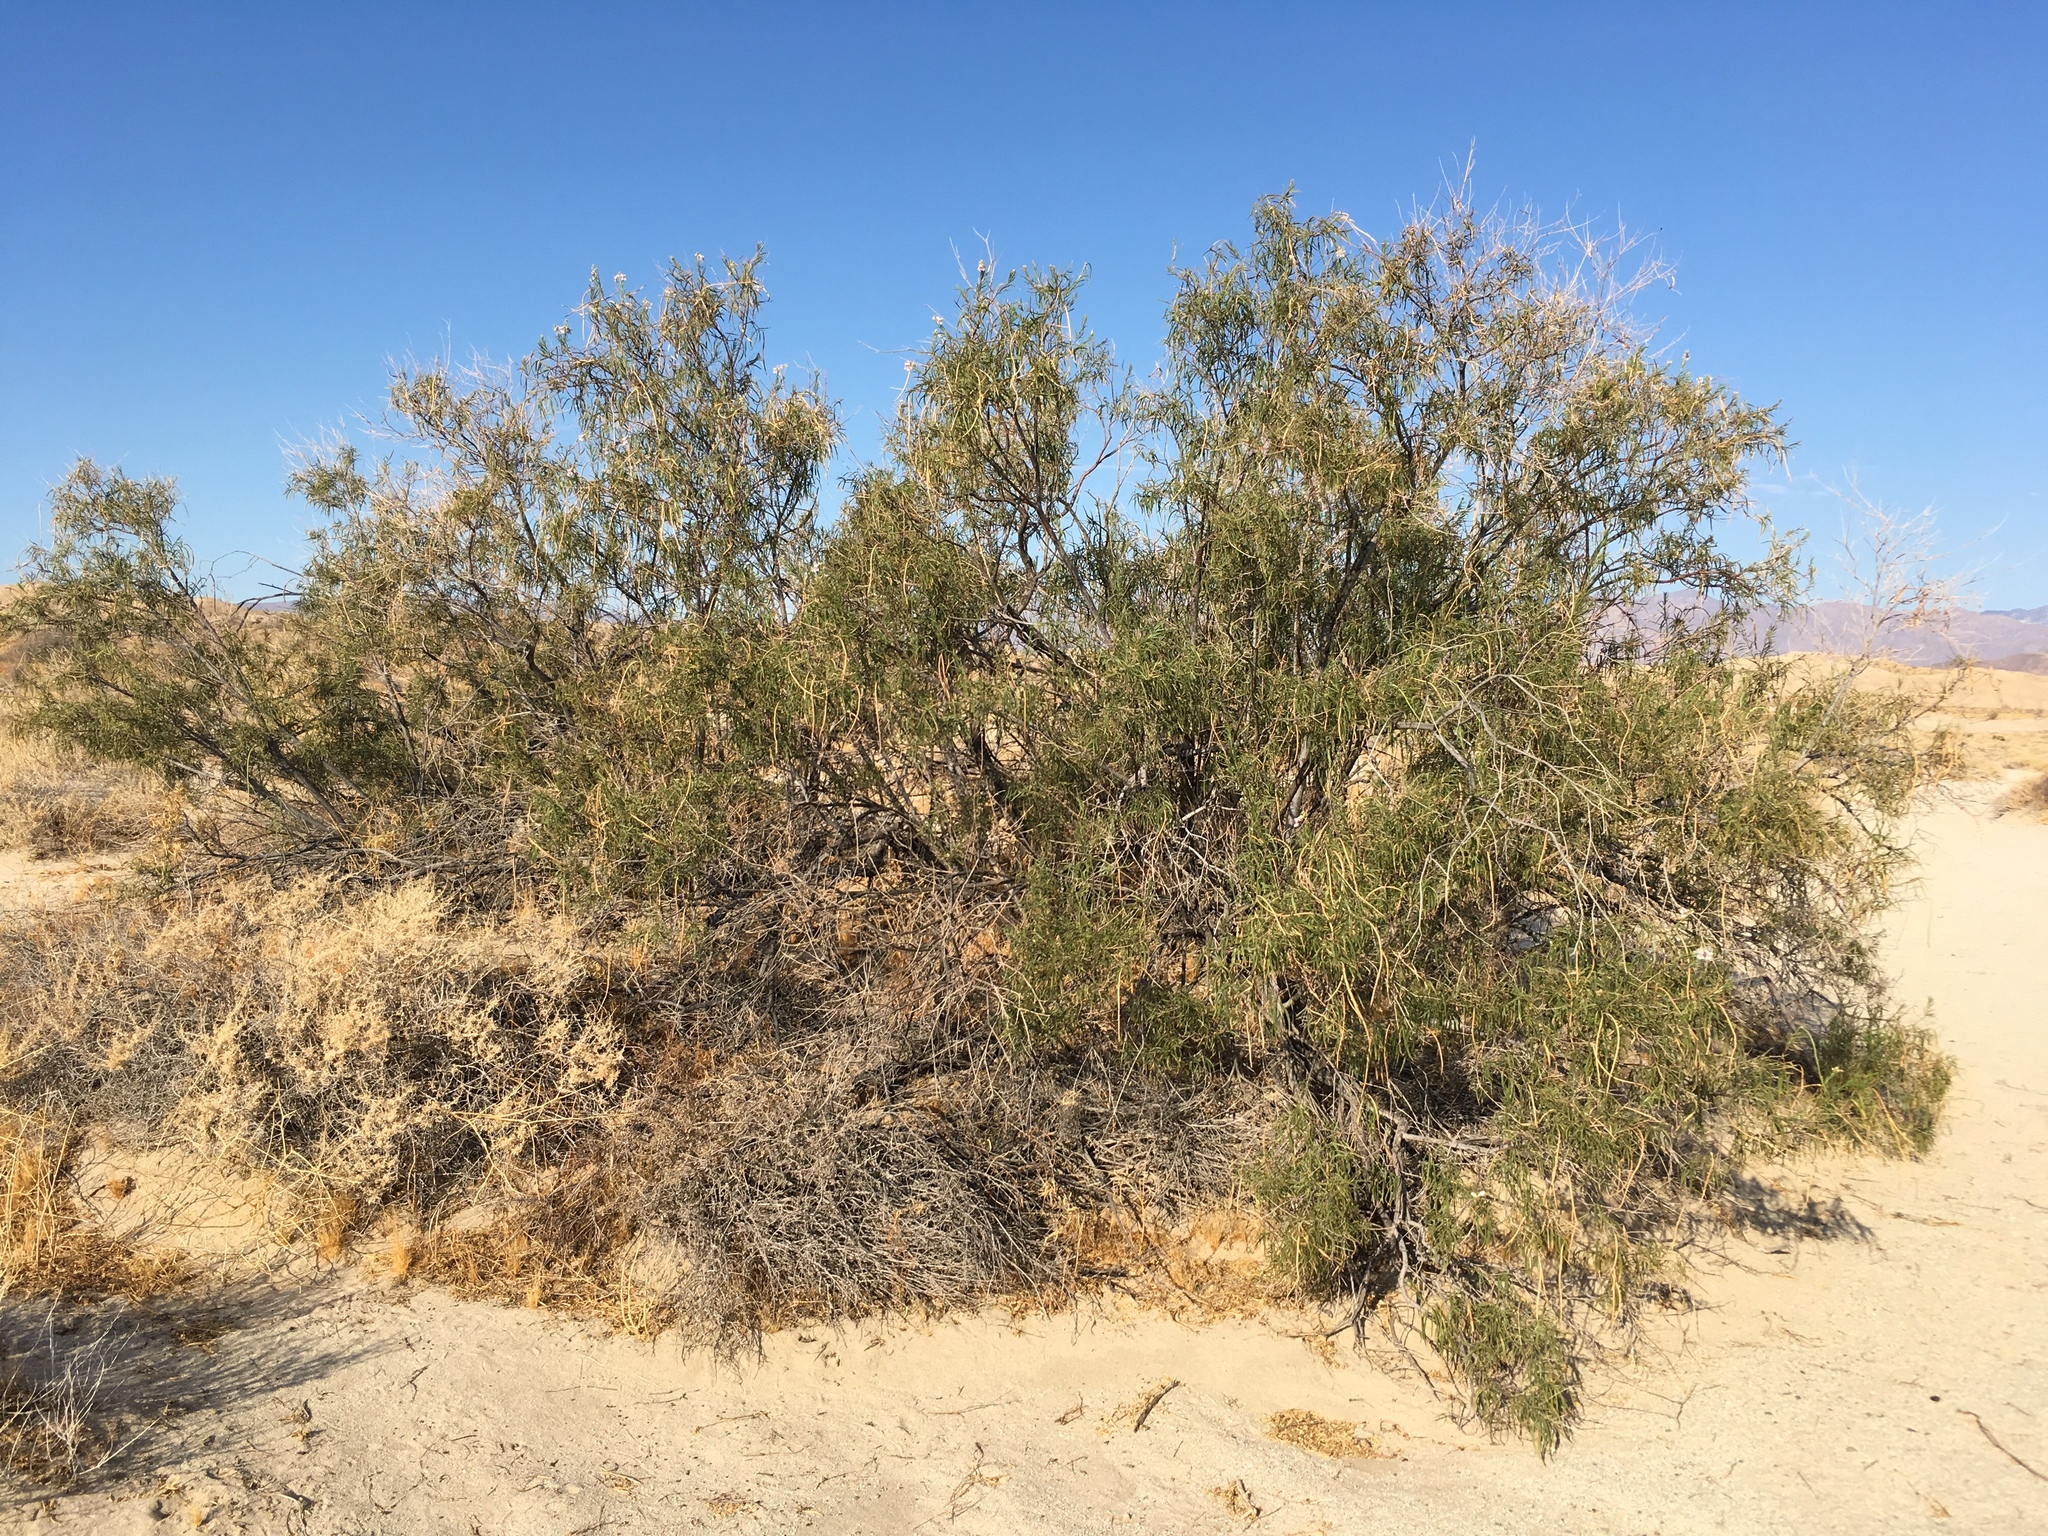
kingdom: Plantae
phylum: Tracheophyta
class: Magnoliopsida
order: Lamiales
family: Bignoniaceae
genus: Chilopsis
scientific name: Chilopsis linearis
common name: Desert-willow
